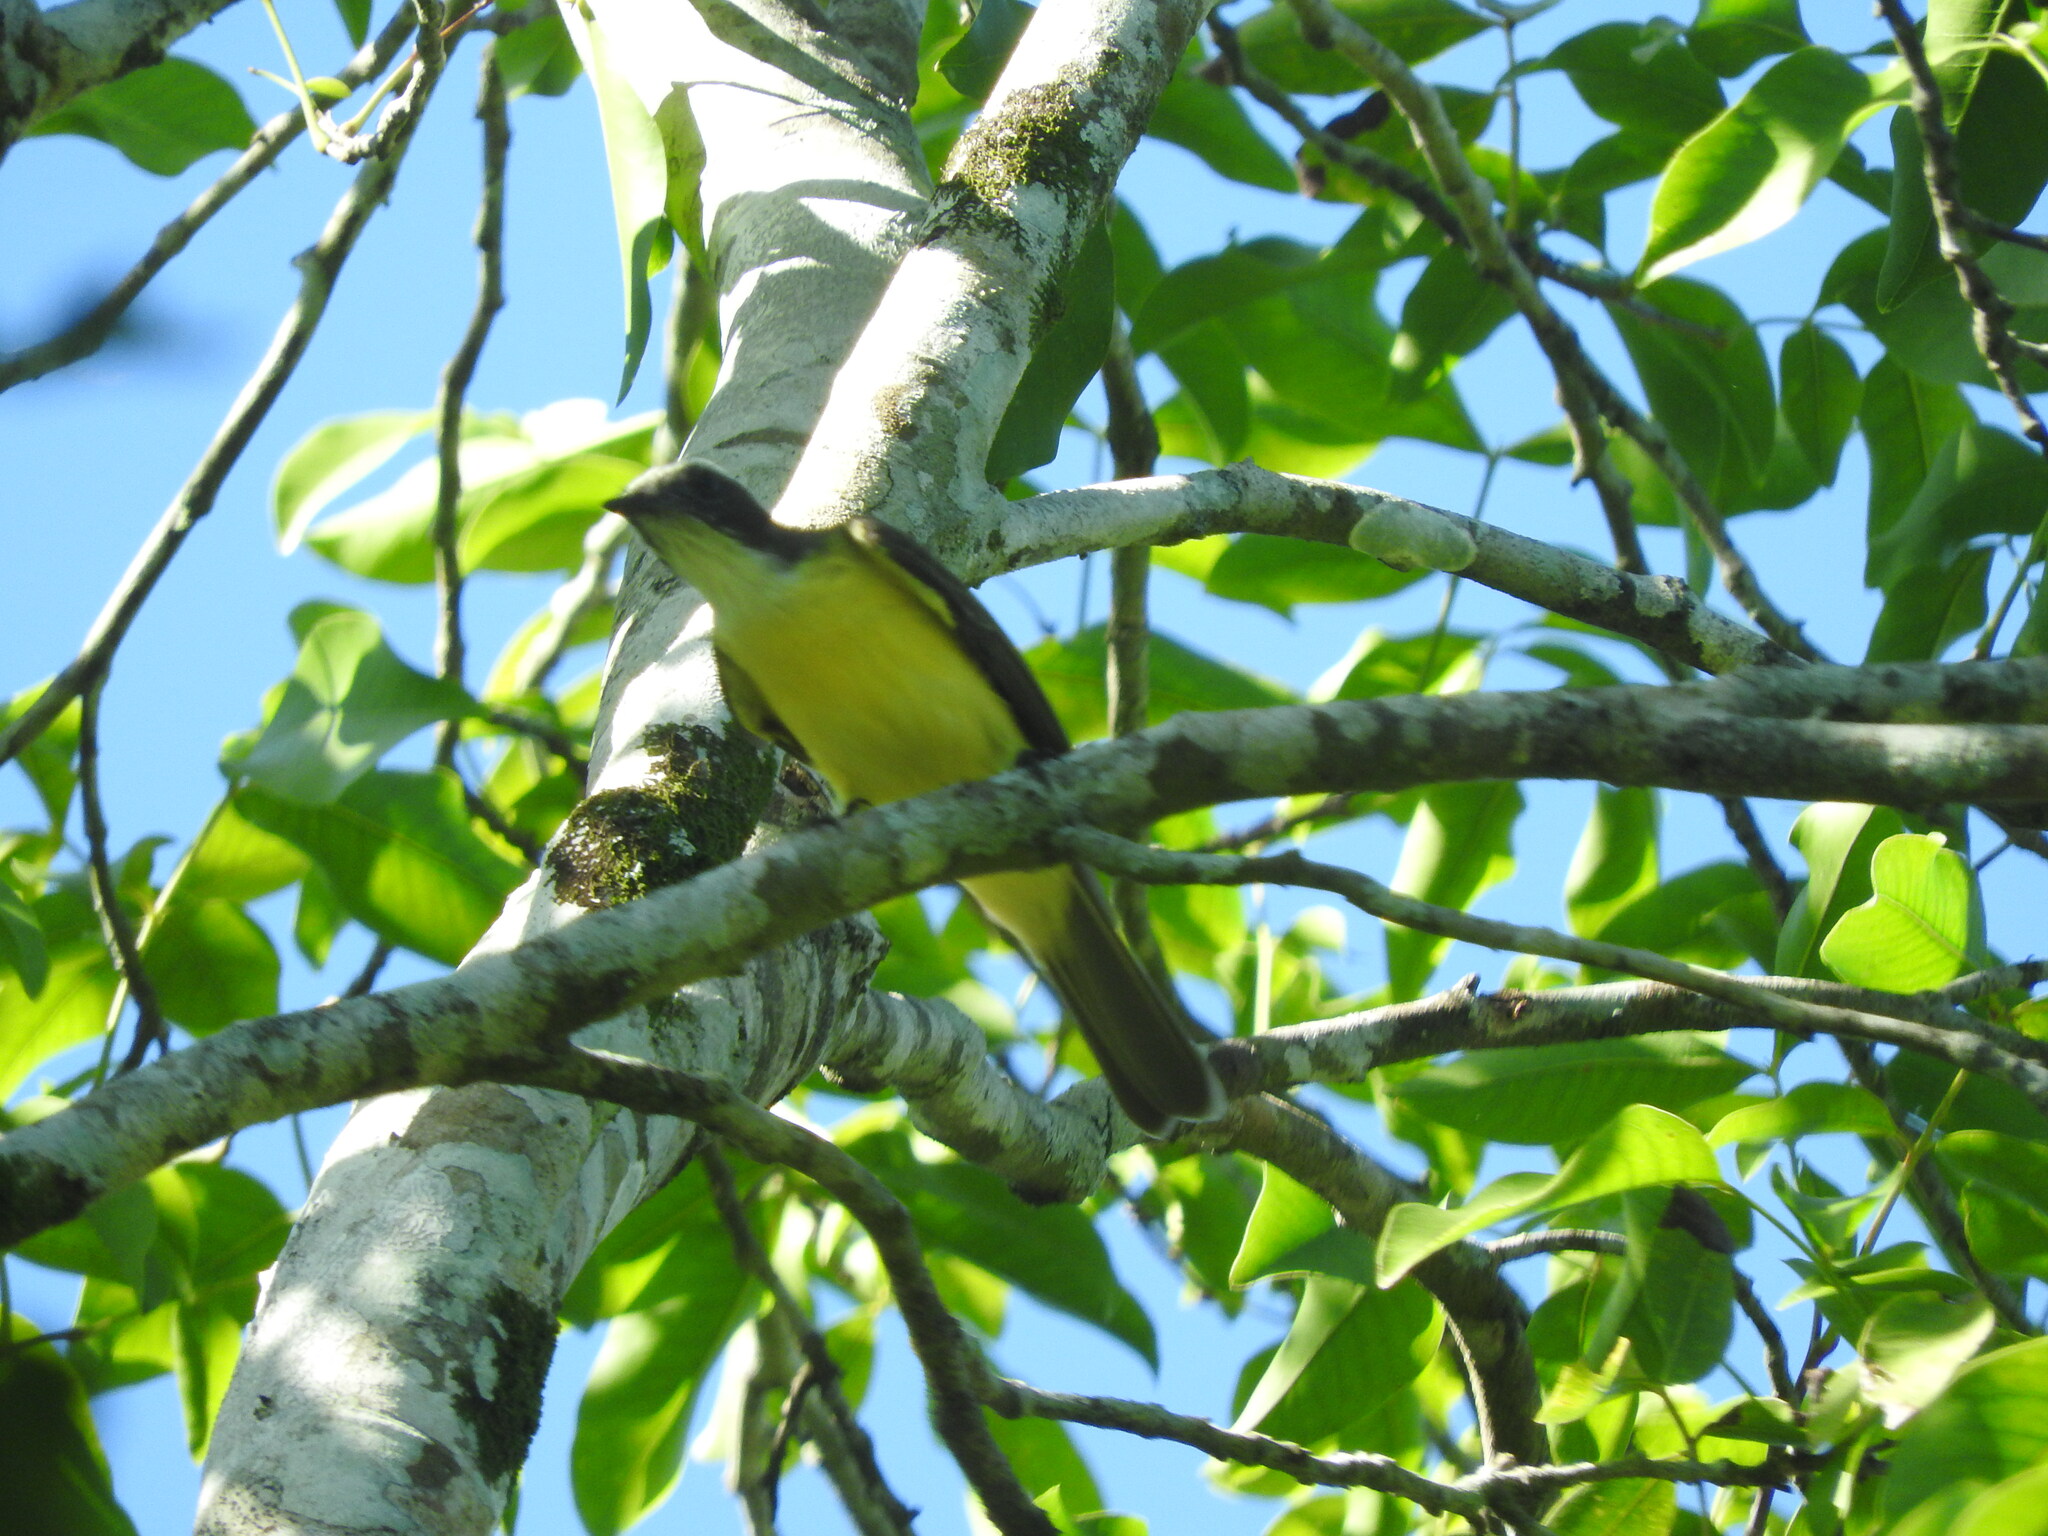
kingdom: Animalia
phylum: Chordata
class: Aves
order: Passeriformes
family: Tyrannidae
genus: Myiozetetes
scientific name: Myiozetetes similis
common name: Social flycatcher
